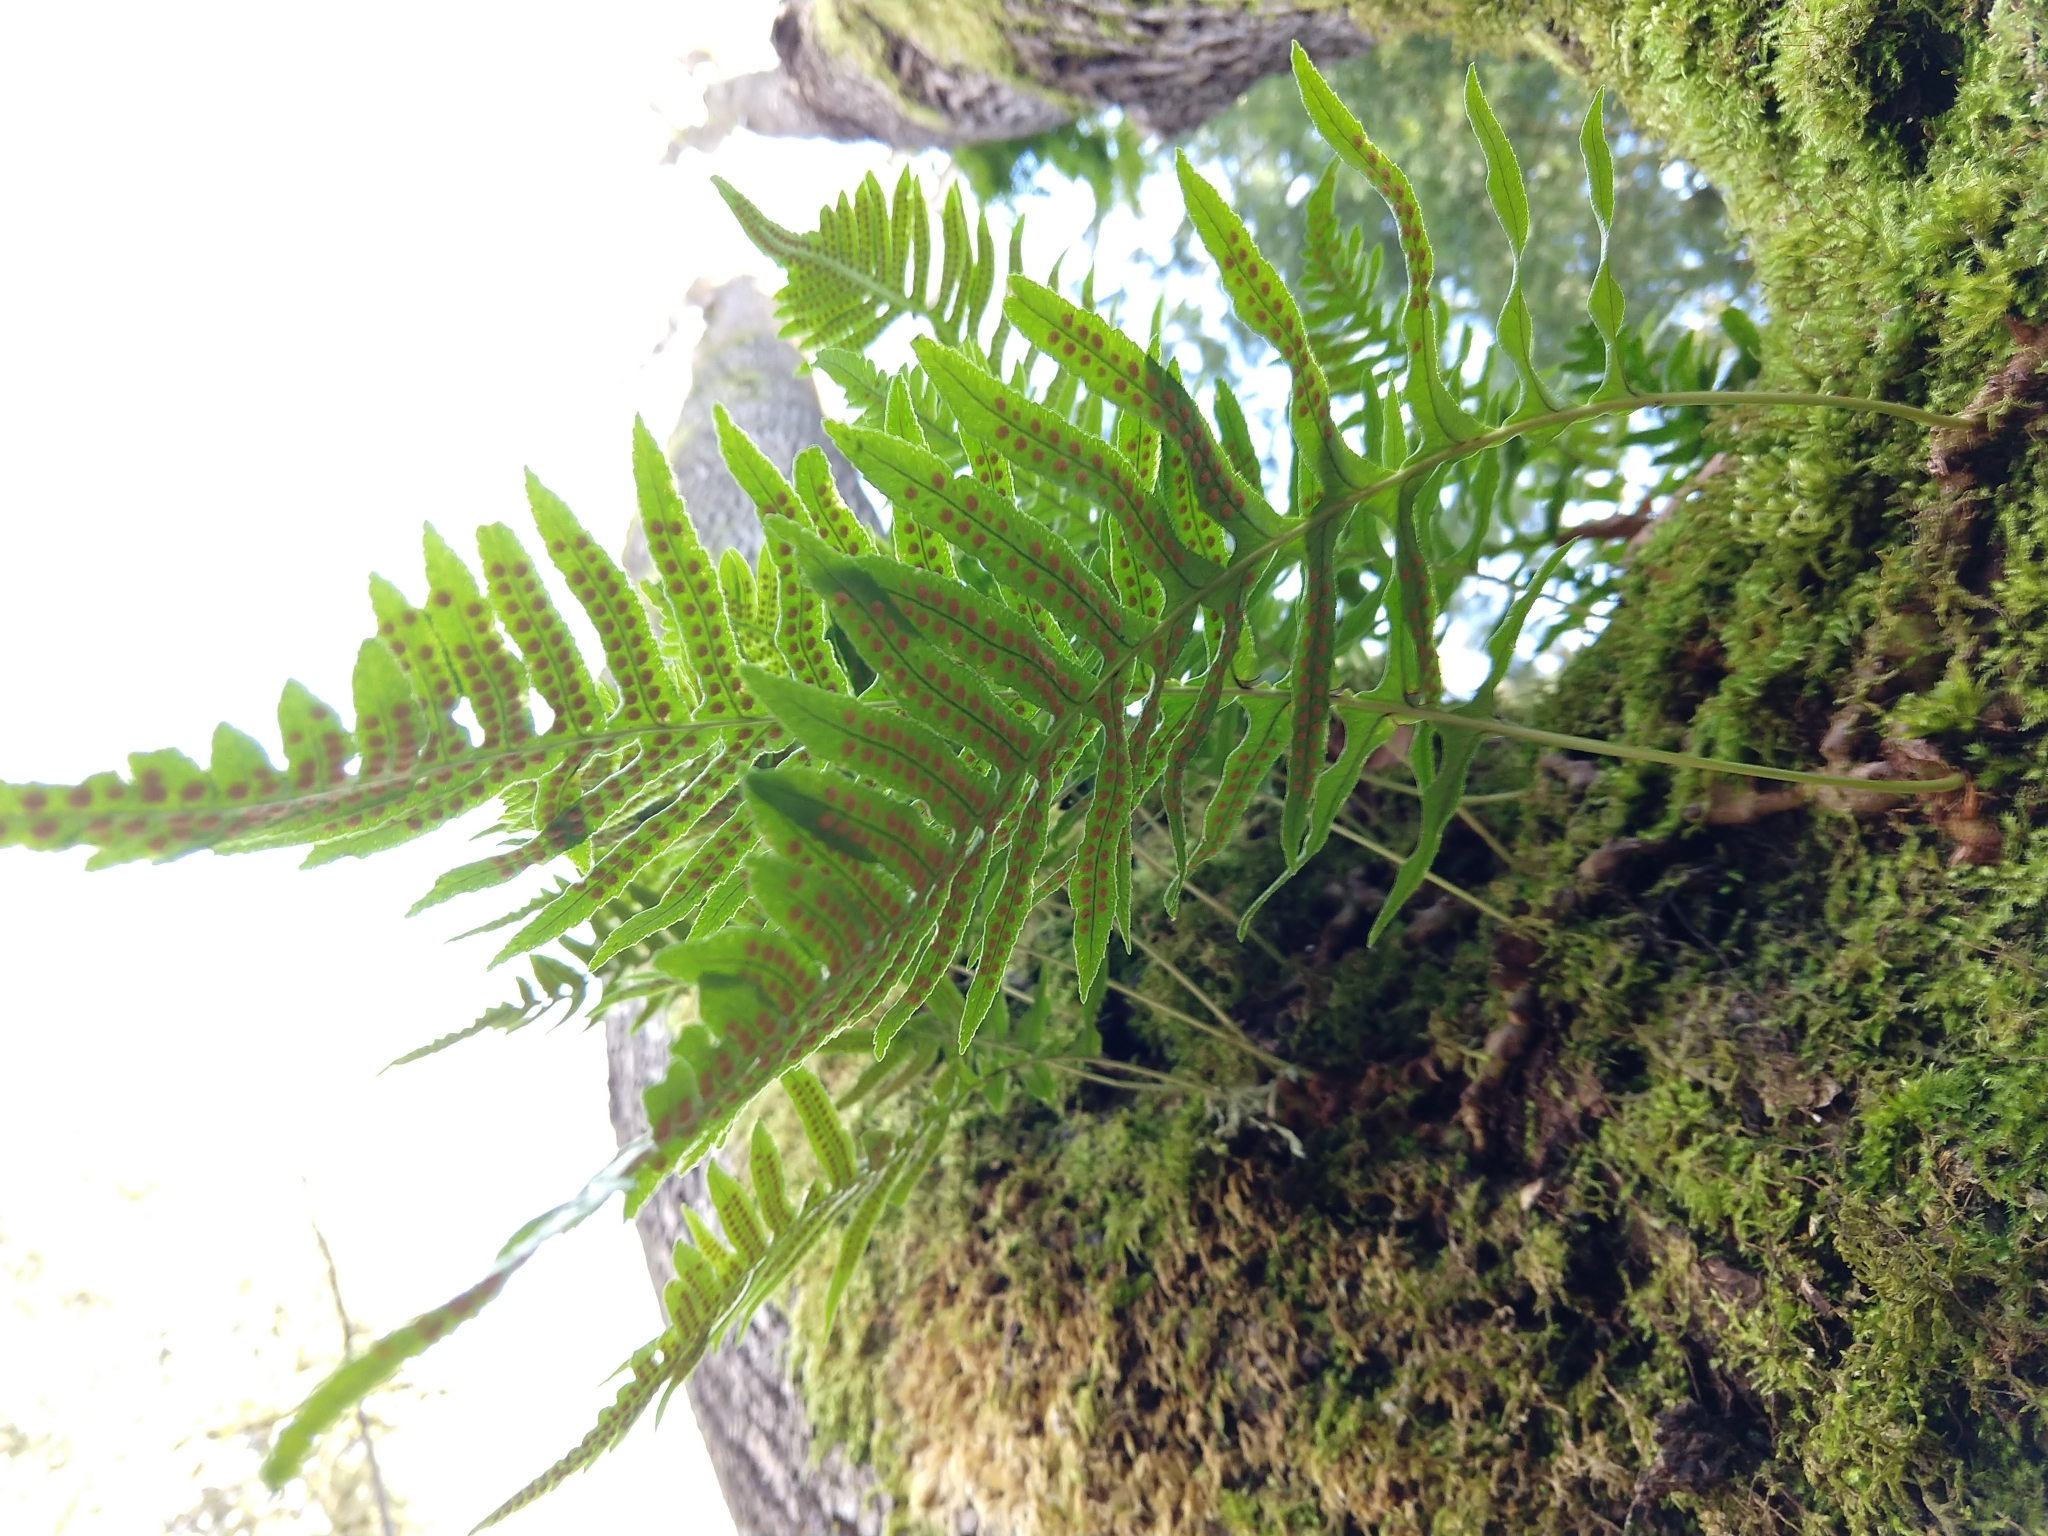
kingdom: Plantae
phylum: Tracheophyta
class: Polypodiopsida
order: Polypodiales
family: Polypodiaceae
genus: Polypodium
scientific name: Polypodium glycyrrhiza
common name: Licorice fern
